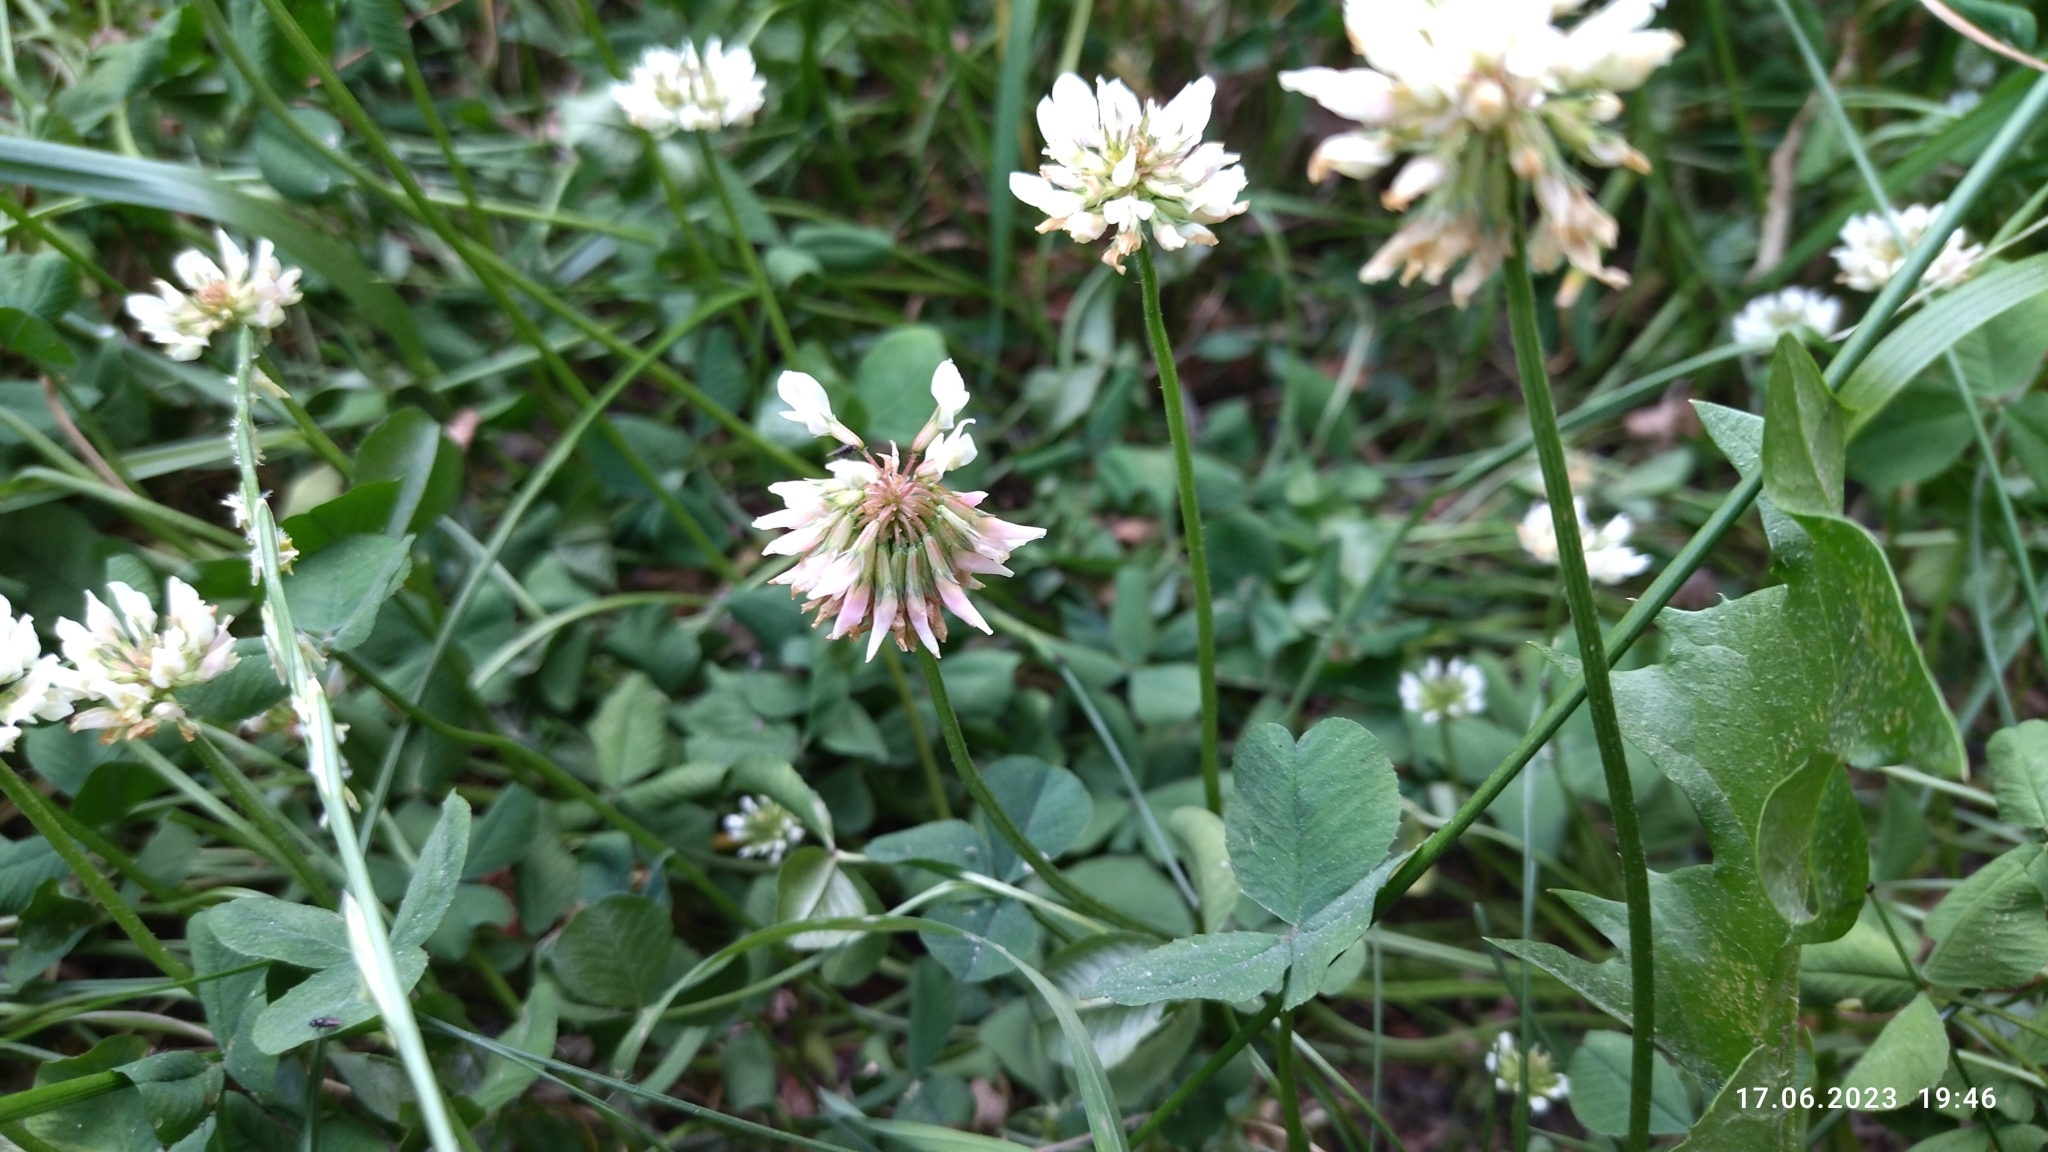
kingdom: Plantae
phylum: Tracheophyta
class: Magnoliopsida
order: Fabales
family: Fabaceae
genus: Trifolium
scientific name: Trifolium repens
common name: White clover
